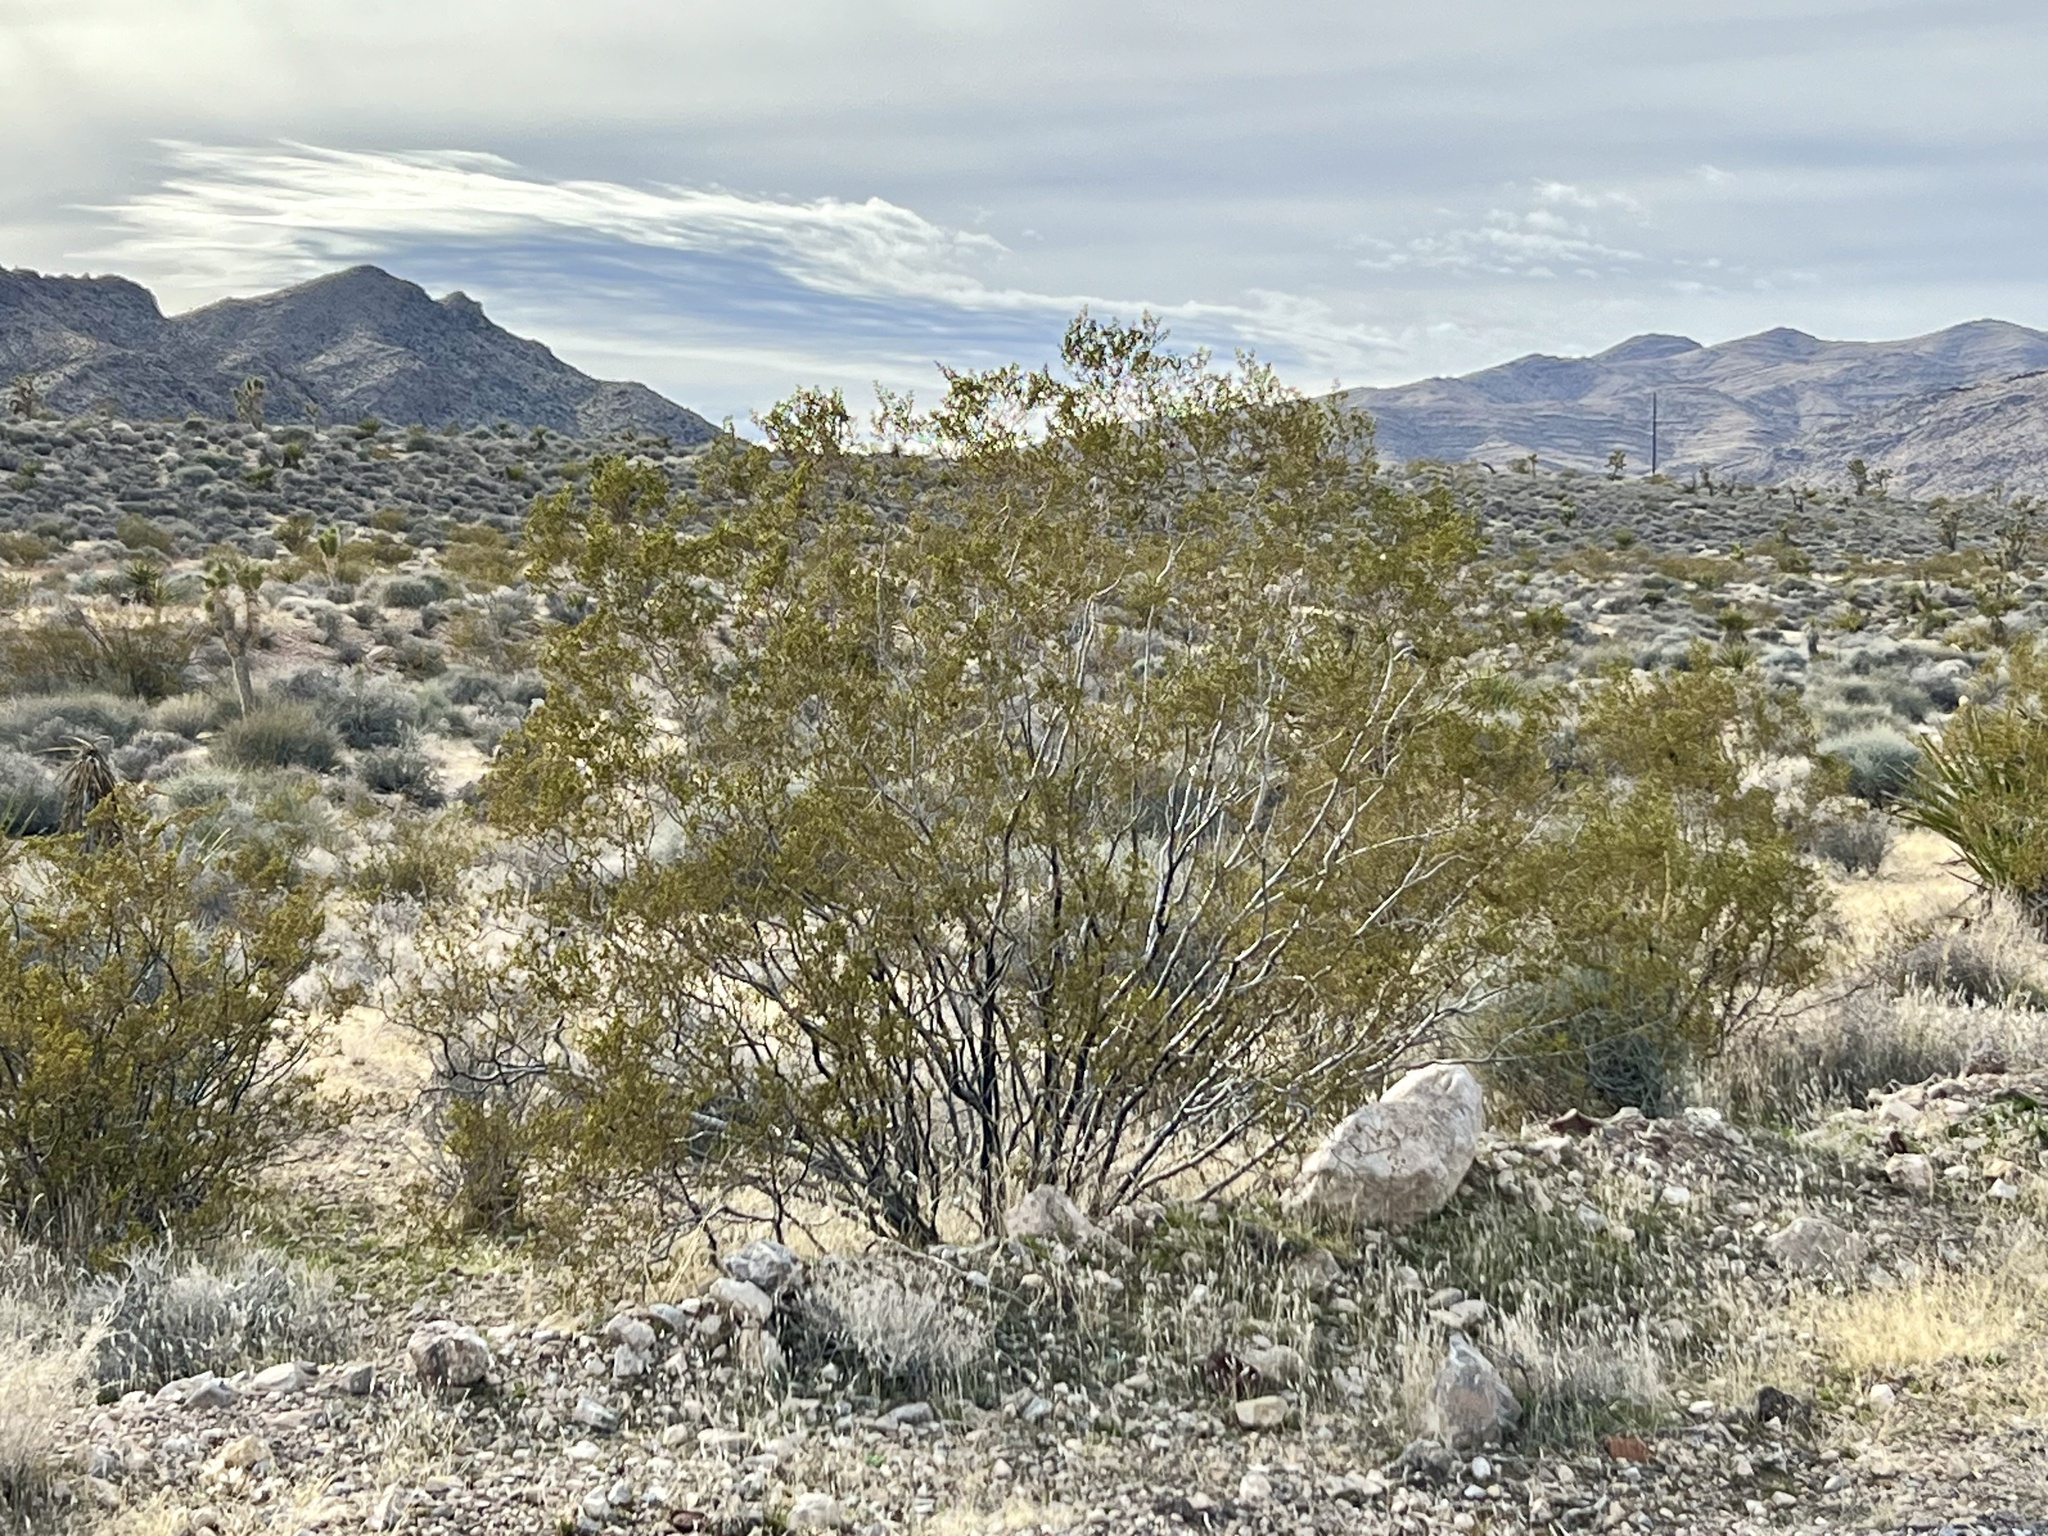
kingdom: Plantae
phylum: Tracheophyta
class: Magnoliopsida
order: Zygophyllales
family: Zygophyllaceae
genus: Larrea
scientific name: Larrea tridentata
